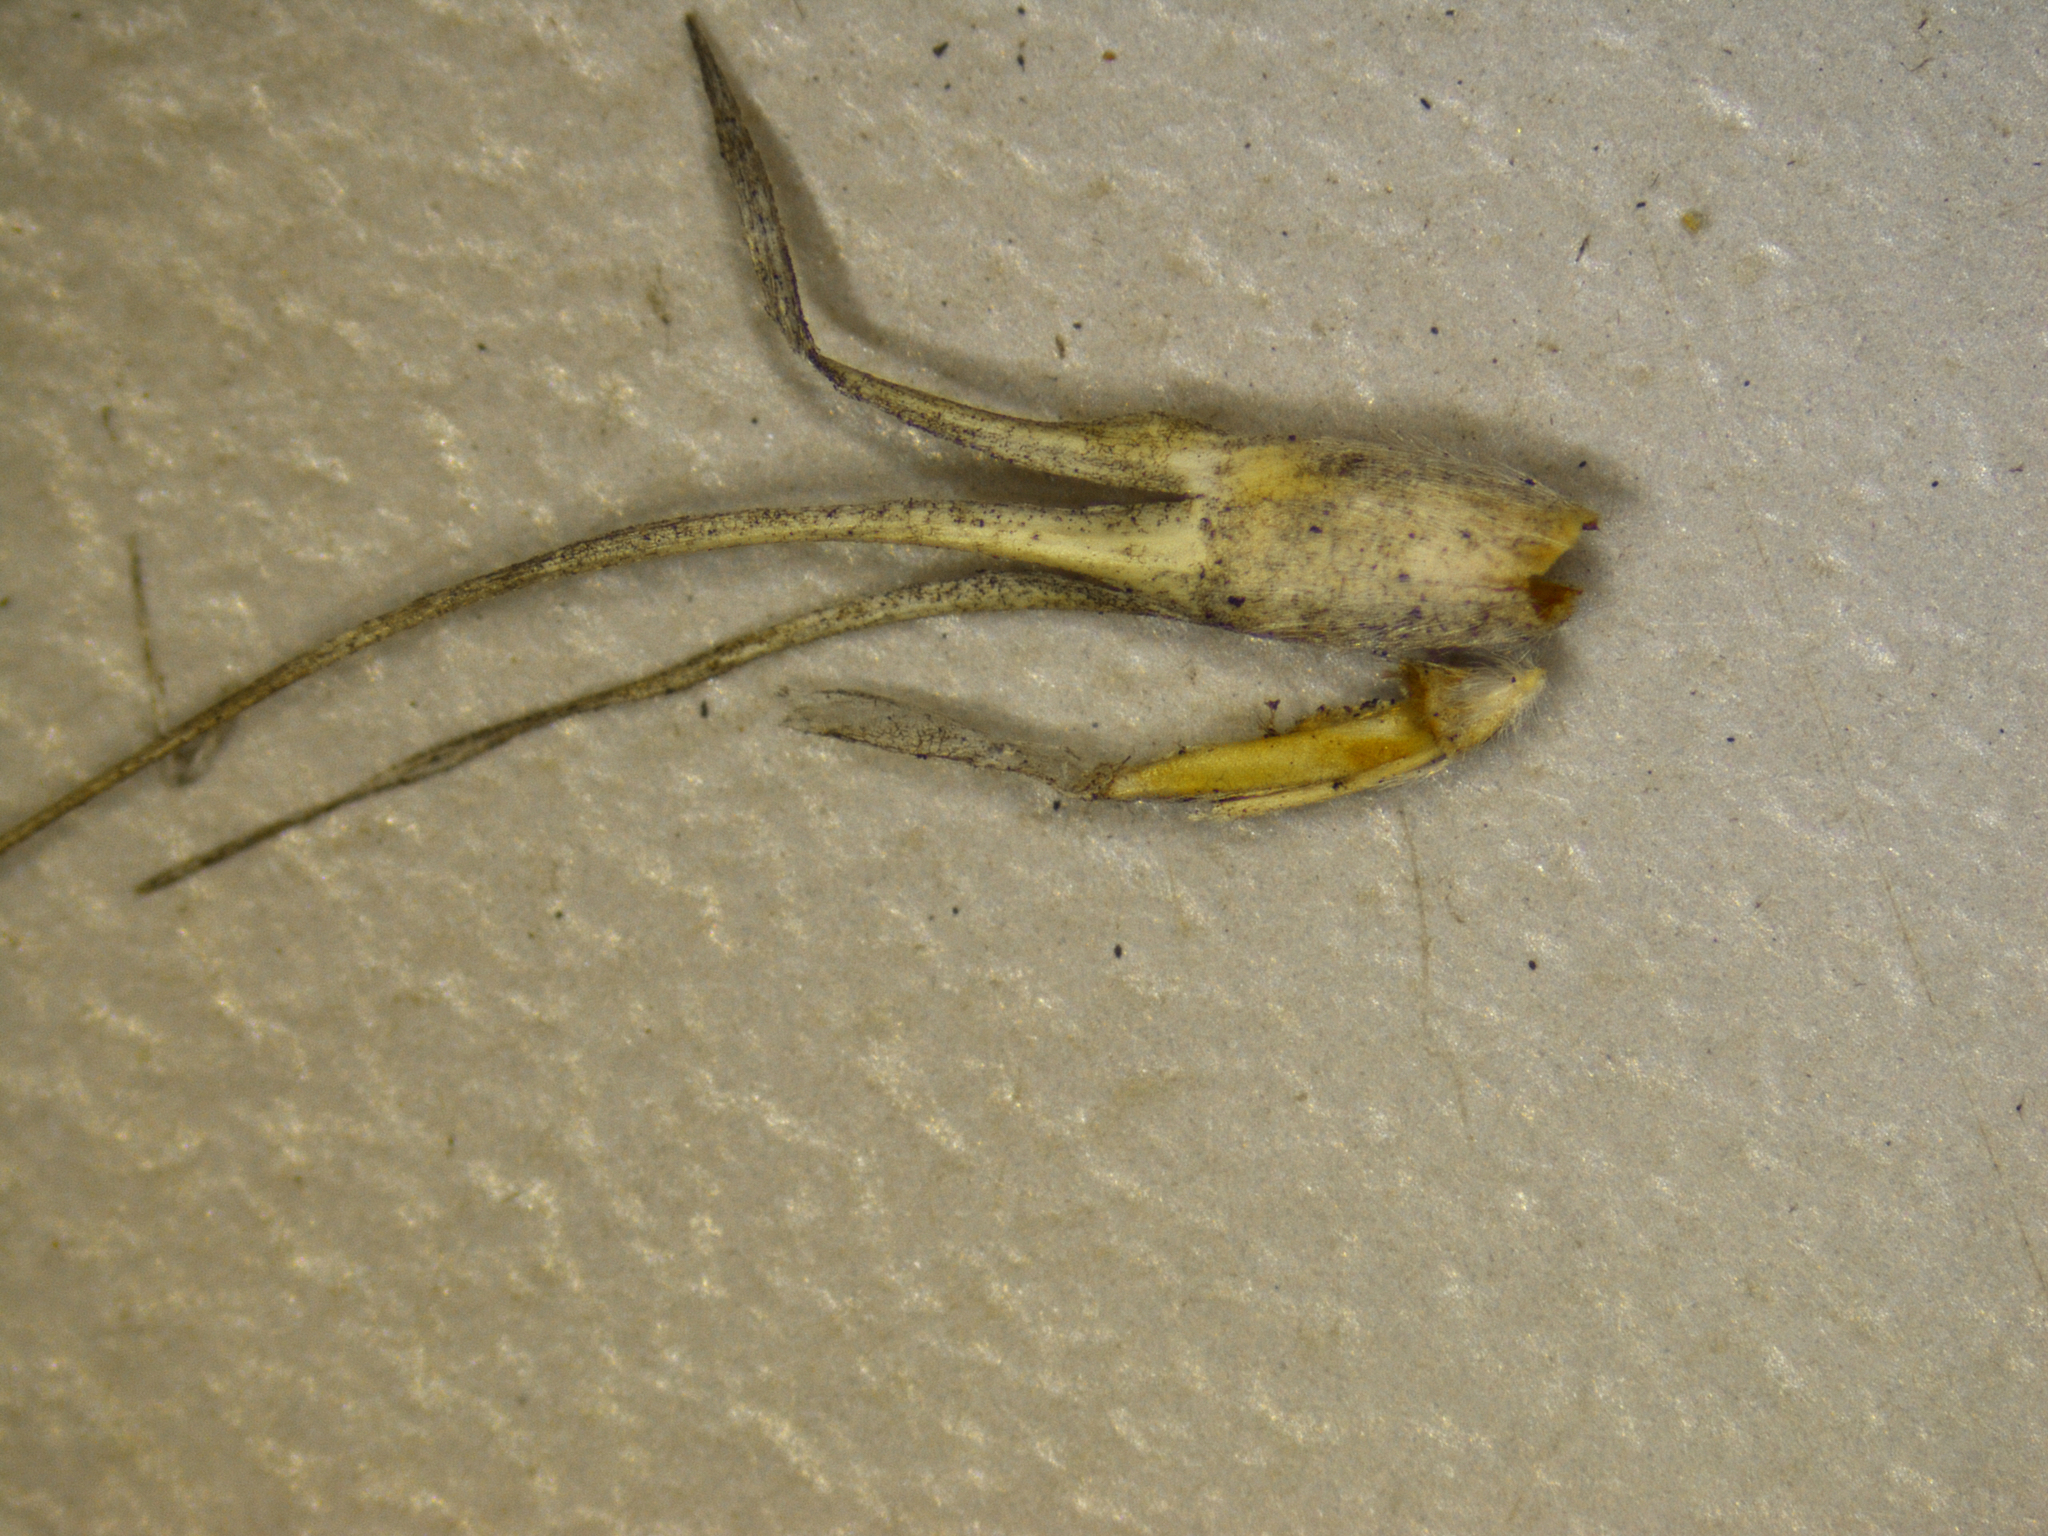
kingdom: Plantae
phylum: Tracheophyta
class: Liliopsida
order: Poales
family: Poaceae
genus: Triodia
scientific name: Triodia bitextura
